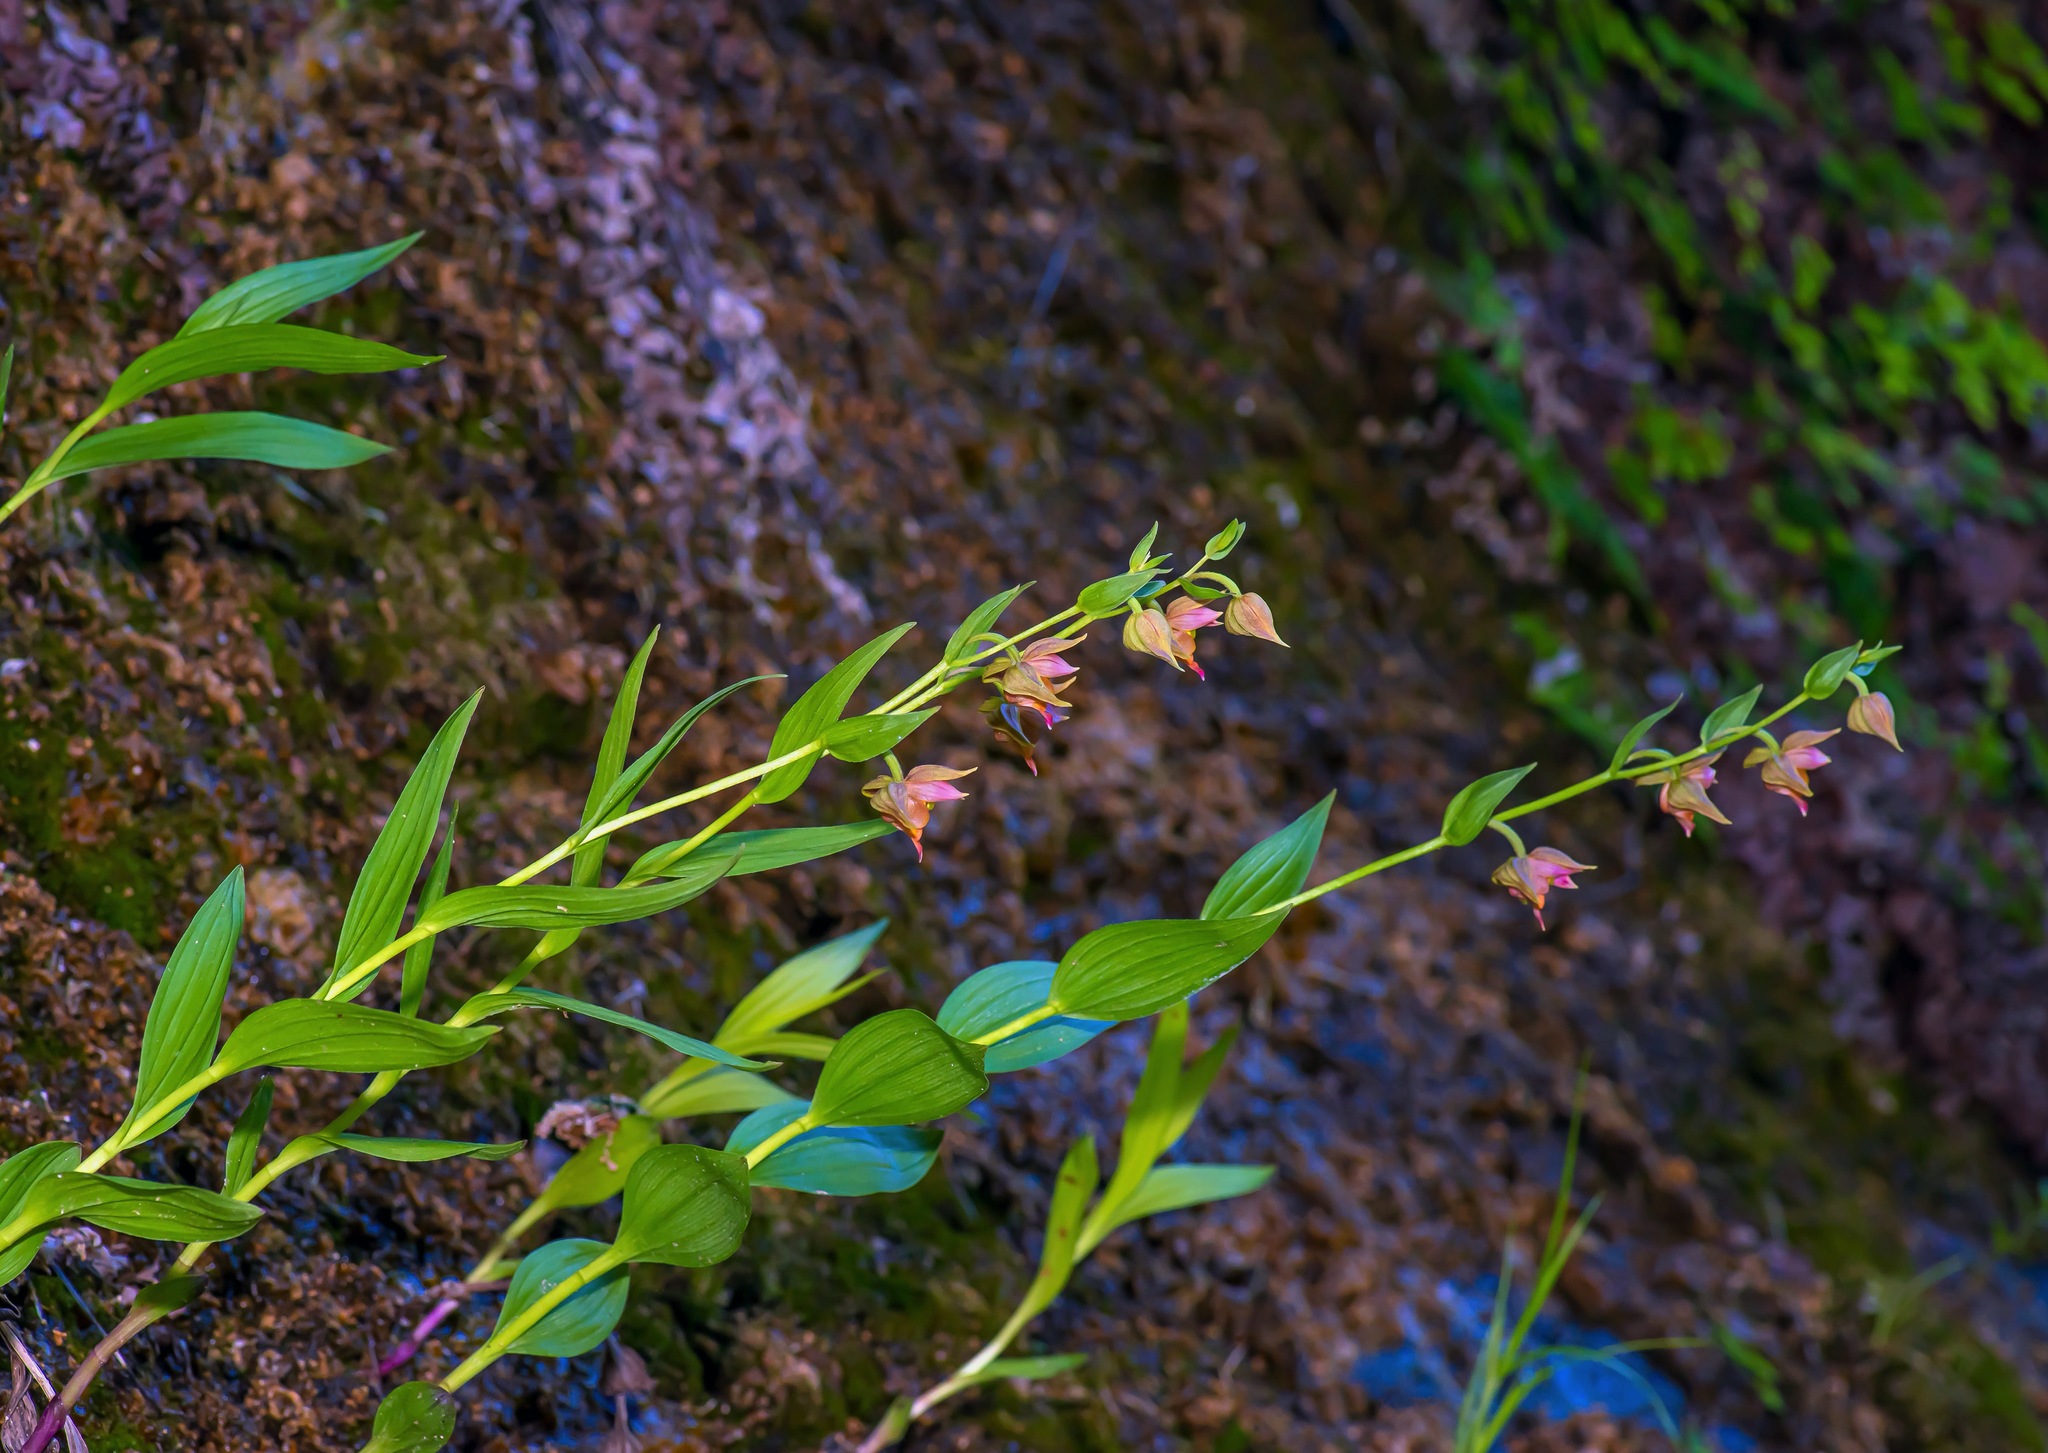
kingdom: Plantae
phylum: Tracheophyta
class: Liliopsida
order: Asparagales
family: Orchidaceae
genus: Epipactis
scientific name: Epipactis gigantea
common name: Chatterbox
